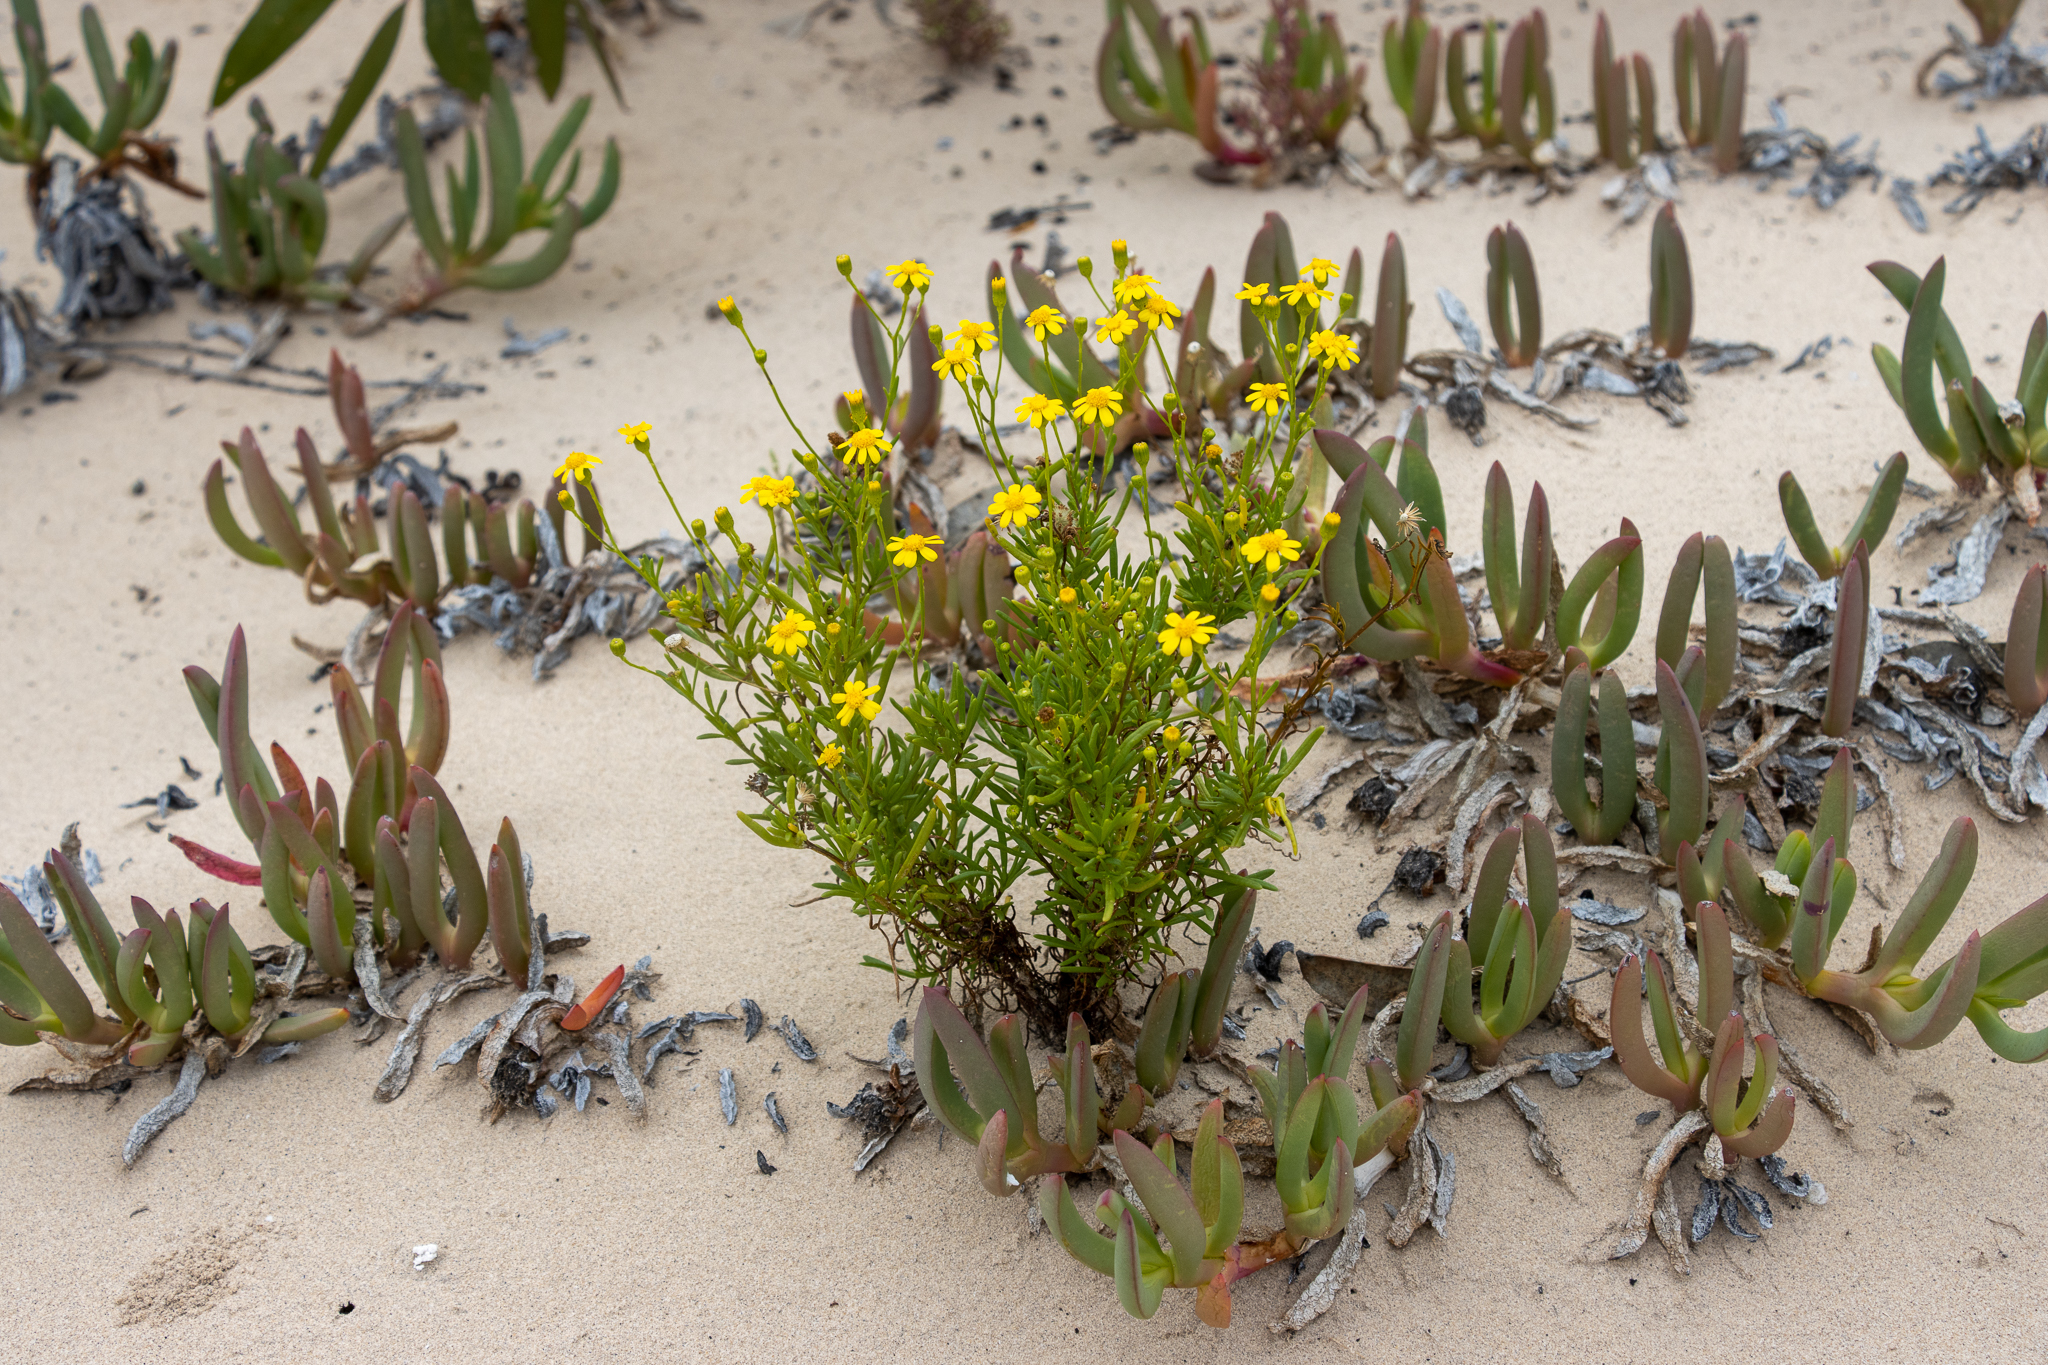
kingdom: Plantae
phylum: Tracheophyta
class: Magnoliopsida
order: Asterales
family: Asteraceae
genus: Senecio
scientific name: Senecio spanomerus
